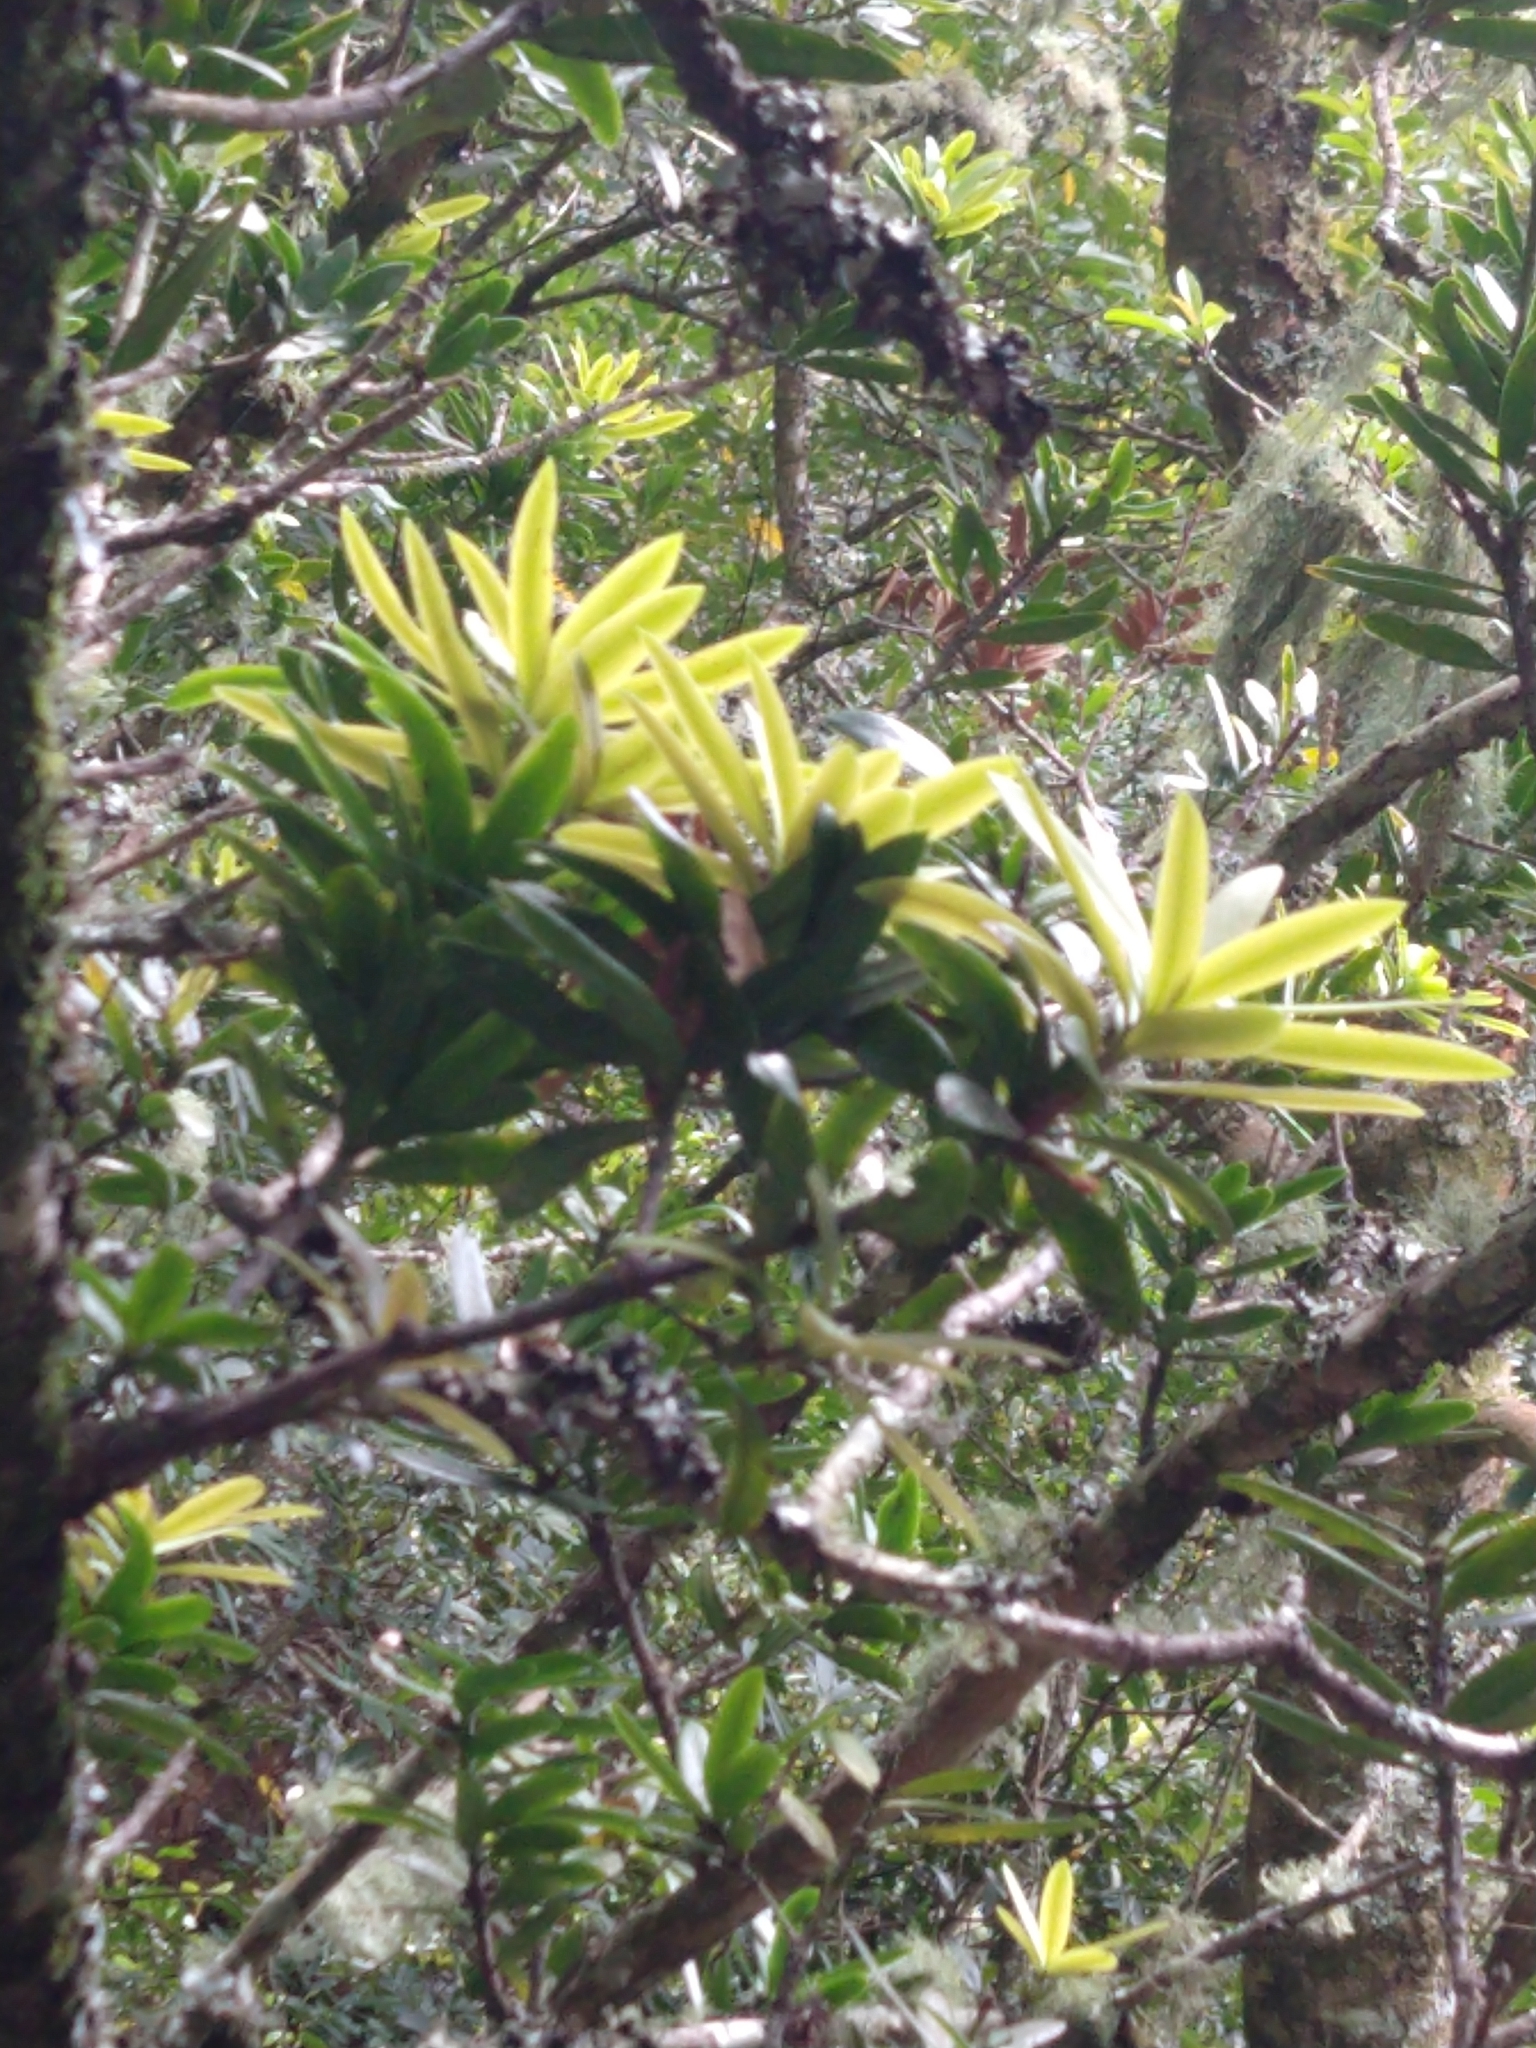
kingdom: Plantae
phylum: Tracheophyta
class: Pinopsida
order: Pinales
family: Podocarpaceae
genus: Podocarpus
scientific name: Podocarpus latifolius
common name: True yellowwood
